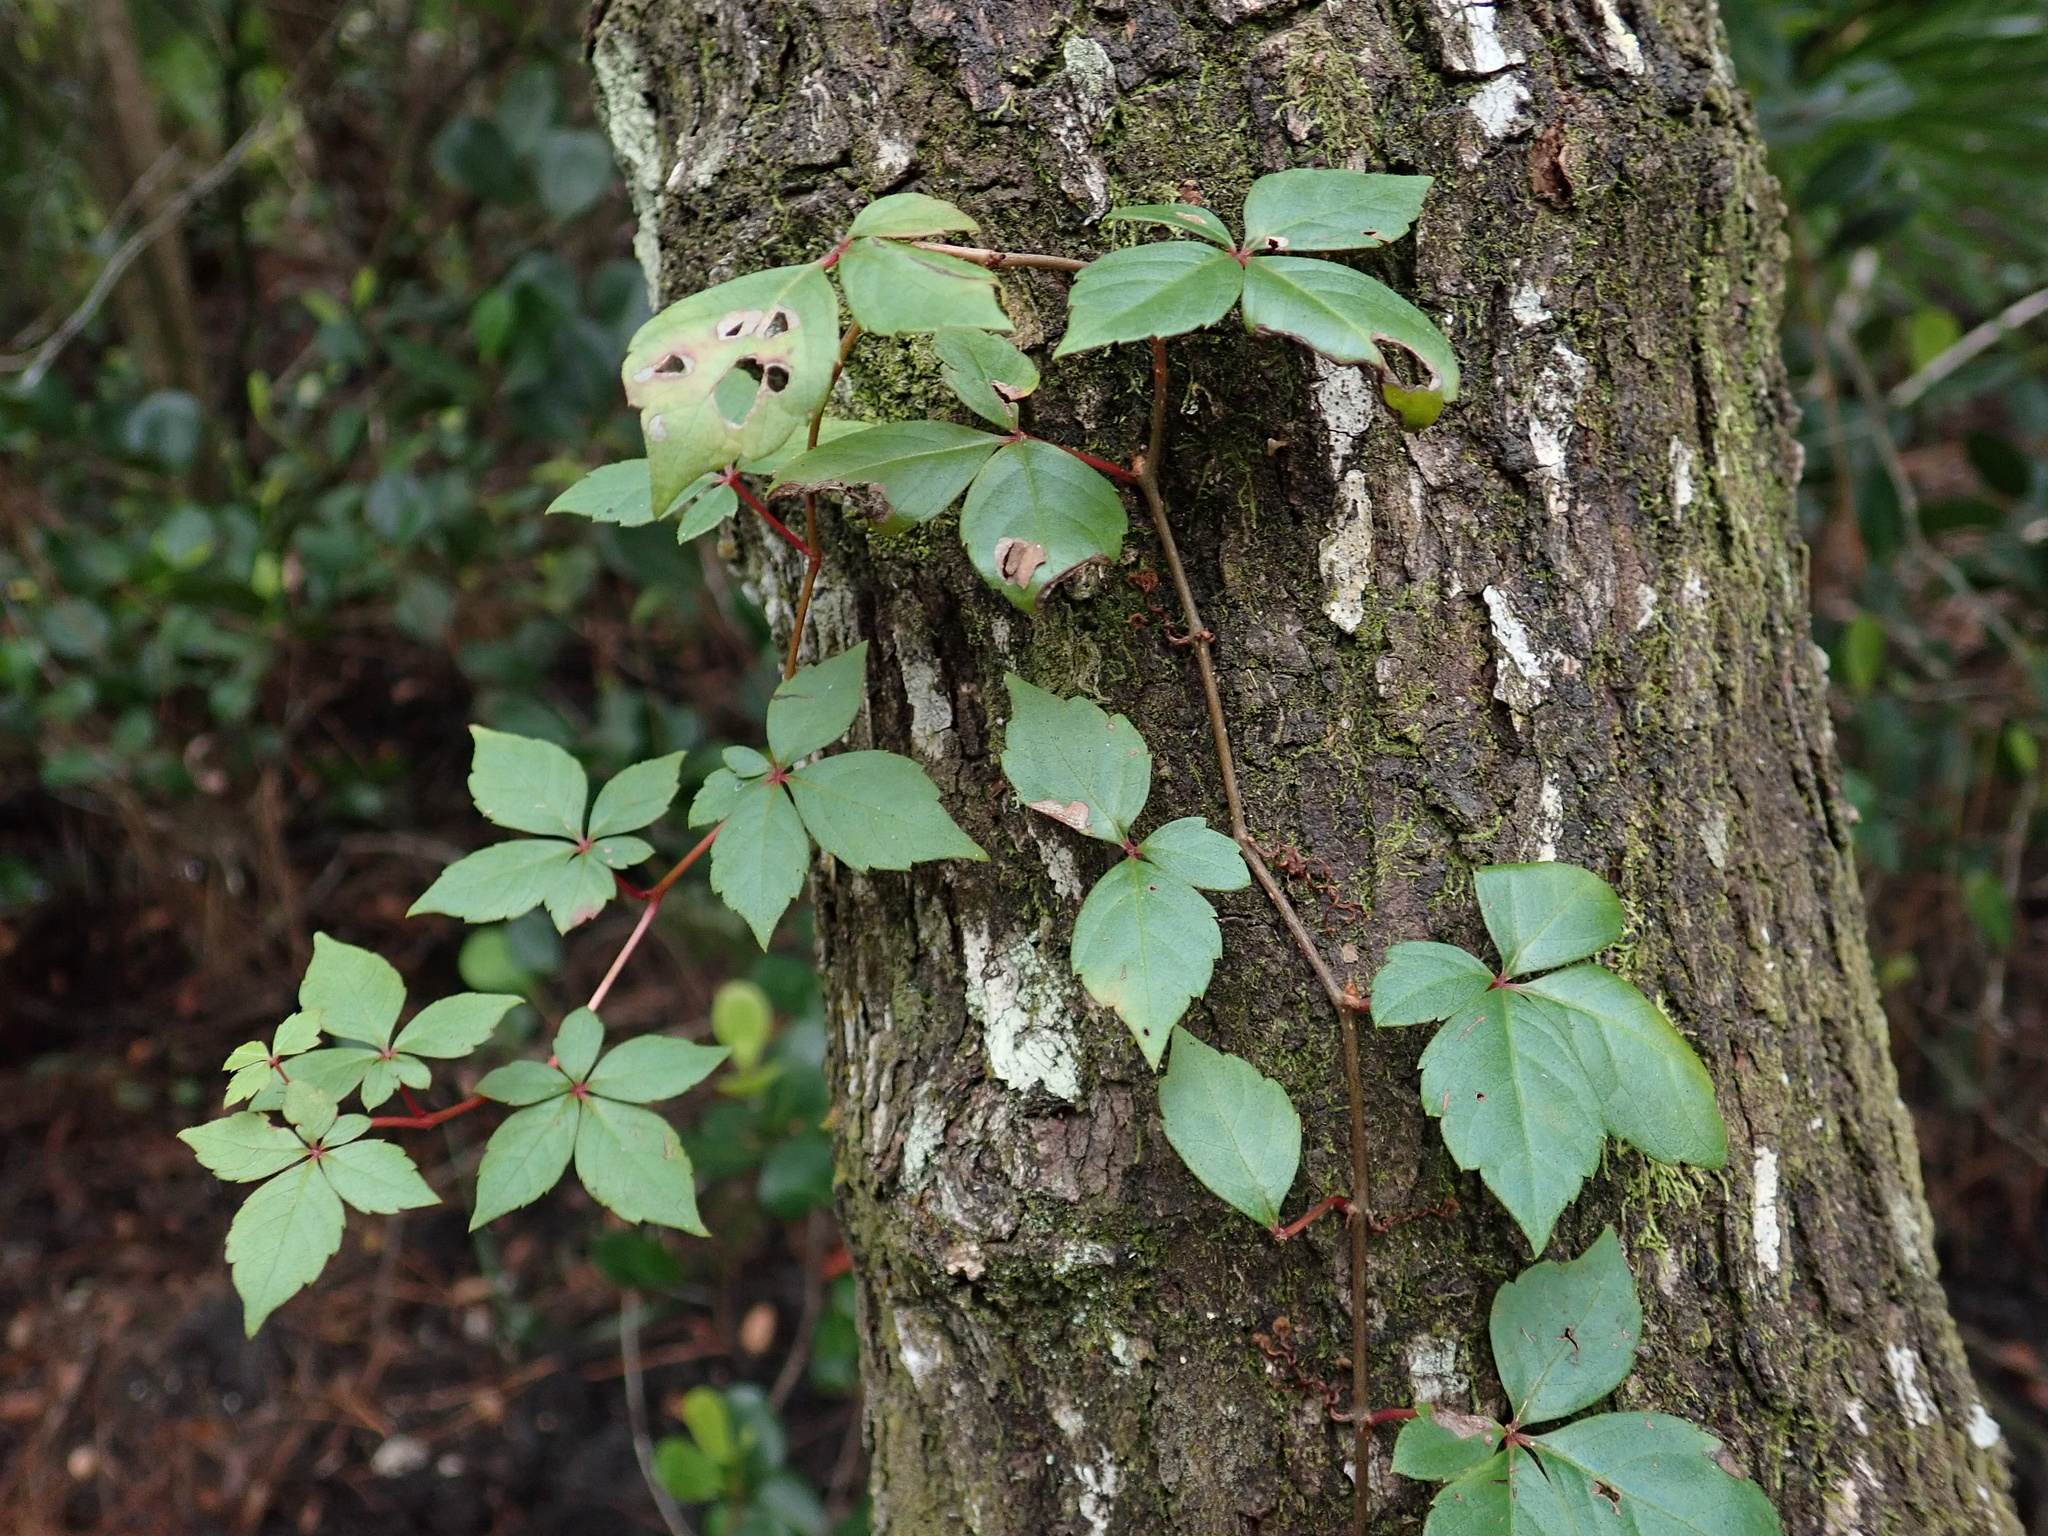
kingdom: Plantae
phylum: Tracheophyta
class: Magnoliopsida
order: Vitales
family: Vitaceae
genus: Parthenocissus
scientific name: Parthenocissus quinquefolia
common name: Virginia-creeper
